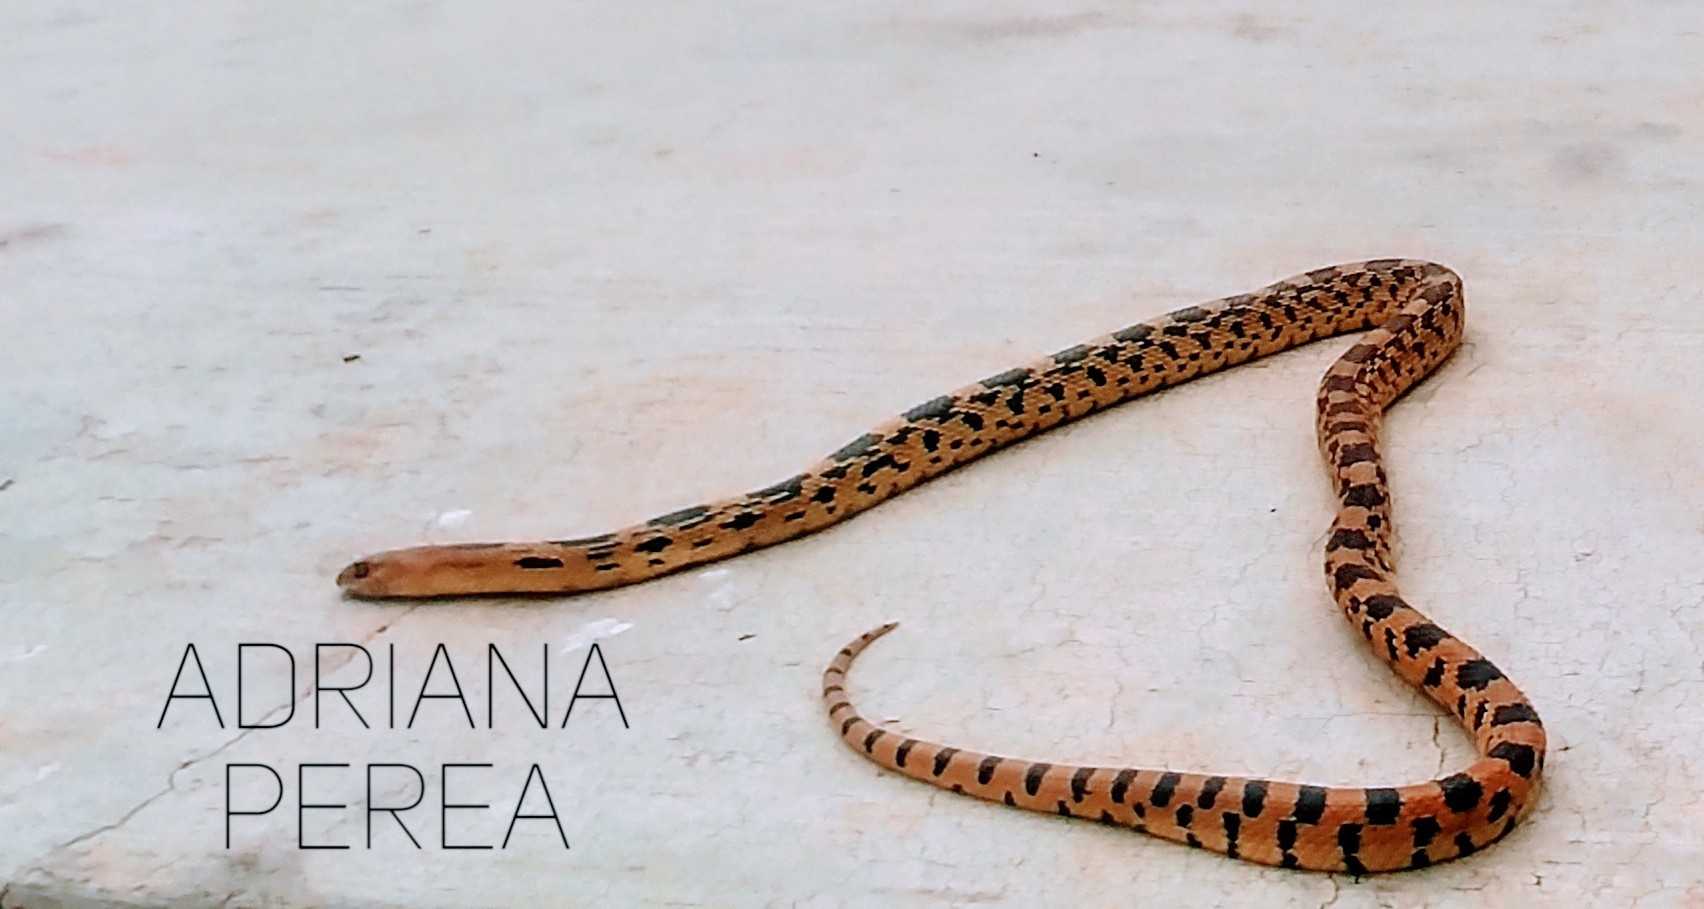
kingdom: Animalia
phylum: Chordata
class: Squamata
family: Colubridae
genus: Pituophis
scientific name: Pituophis deppei
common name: Mexican bull snake
